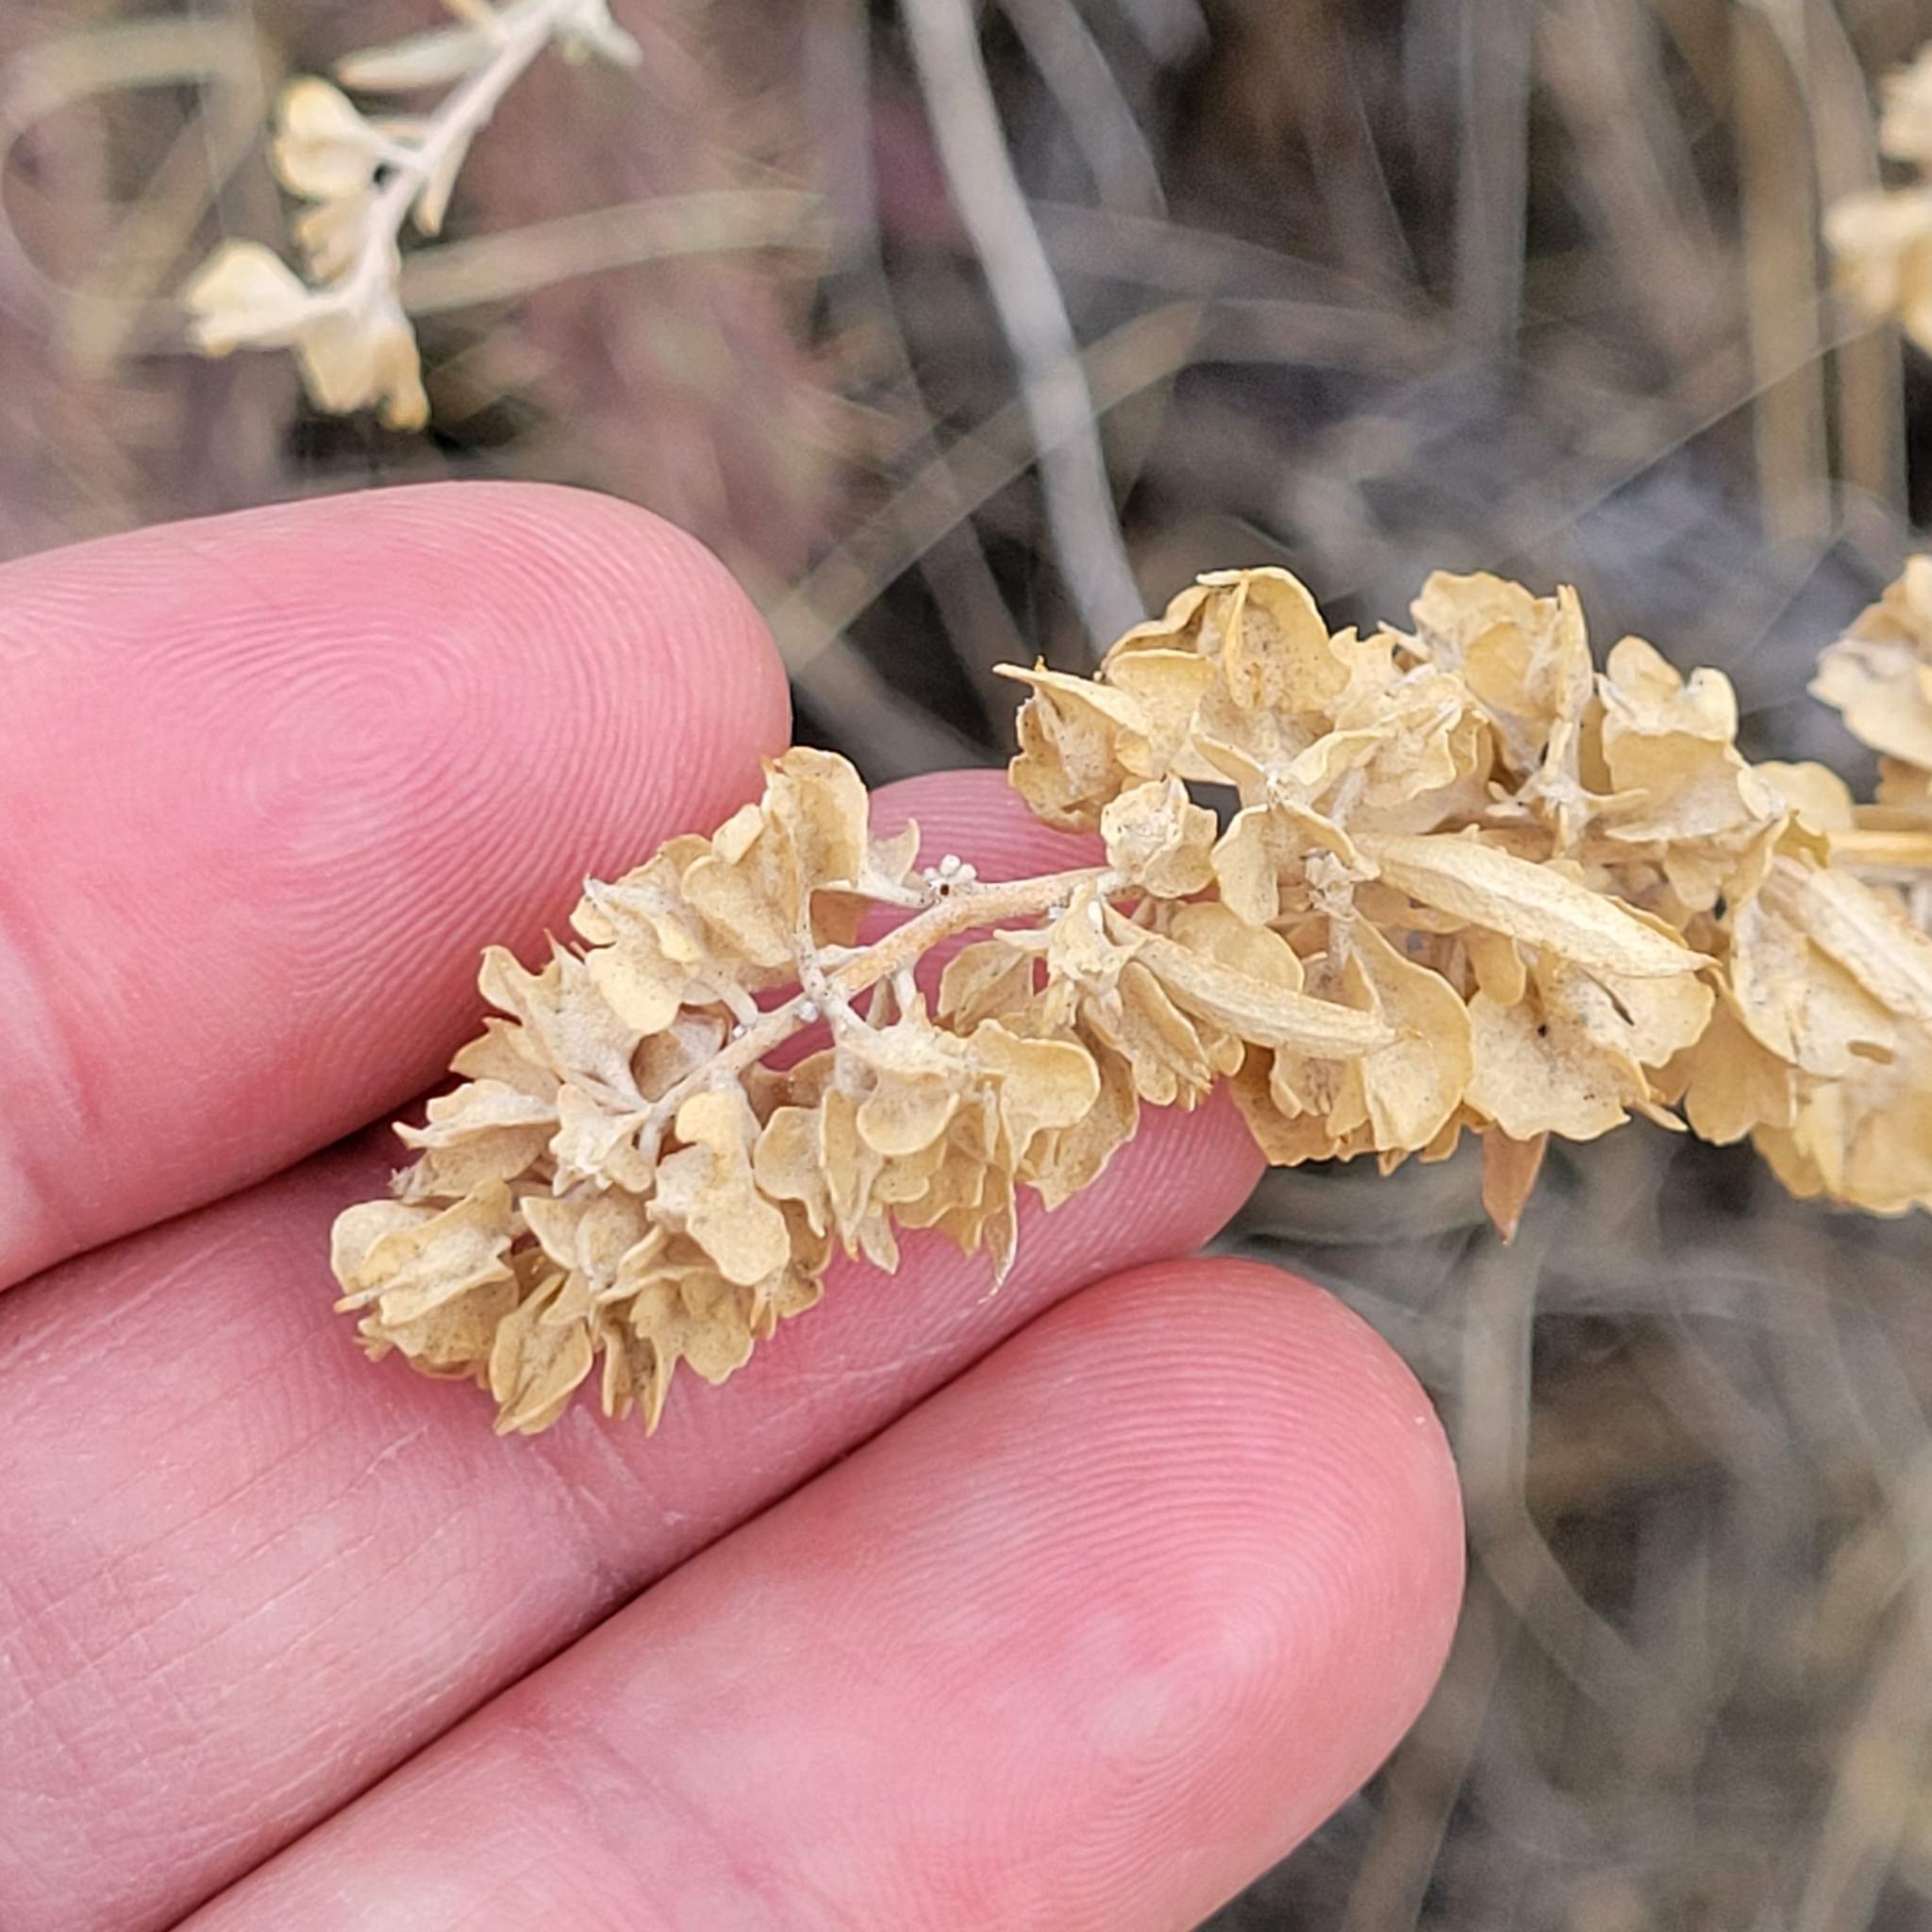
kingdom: Plantae
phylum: Tracheophyta
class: Magnoliopsida
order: Caryophyllales
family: Amaranthaceae
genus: Atriplex
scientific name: Atriplex canescens
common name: Four-wing saltbush
